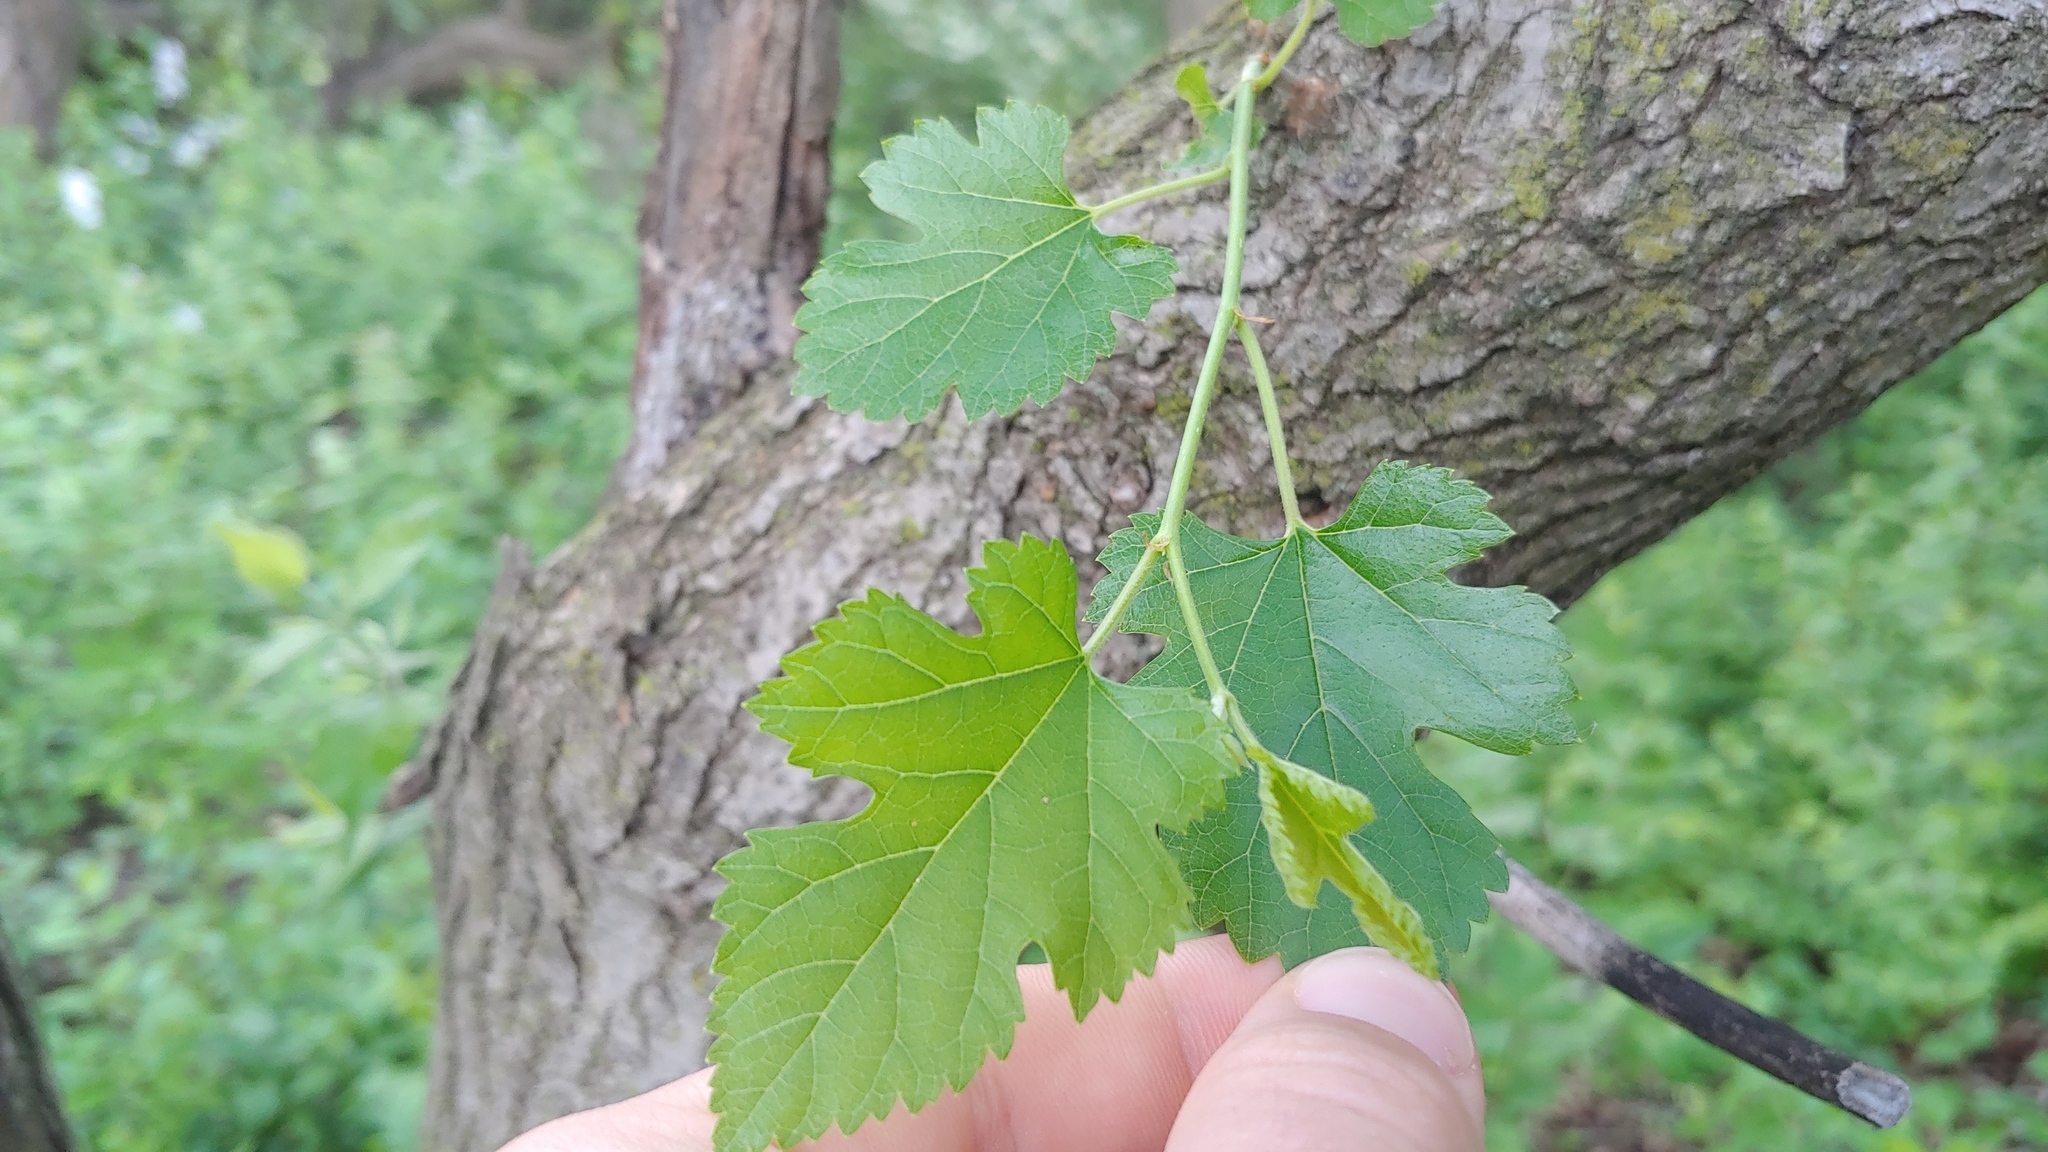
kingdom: Plantae
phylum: Tracheophyta
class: Magnoliopsida
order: Rosales
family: Moraceae
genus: Morus
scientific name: Morus alba
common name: White mulberry
